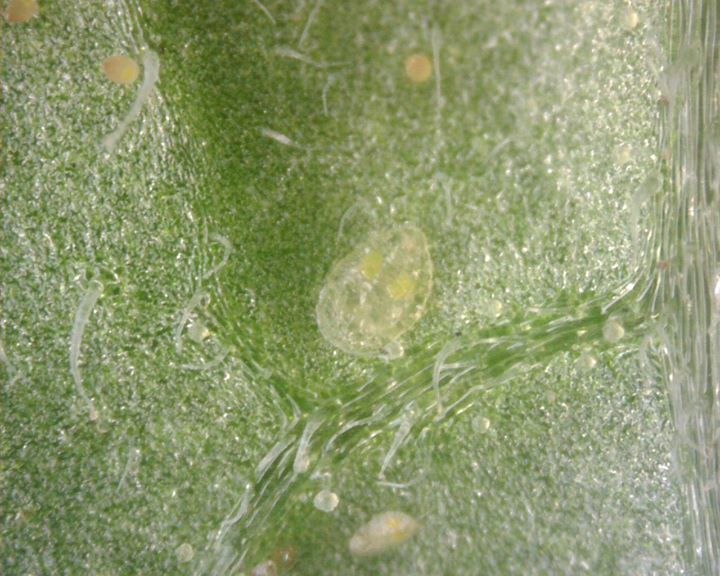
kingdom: Animalia
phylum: Arthropoda
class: Insecta
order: Hemiptera
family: Aleyrodidae
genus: Bemisia
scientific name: Bemisia tabaci
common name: Sweetpotato whitefly
